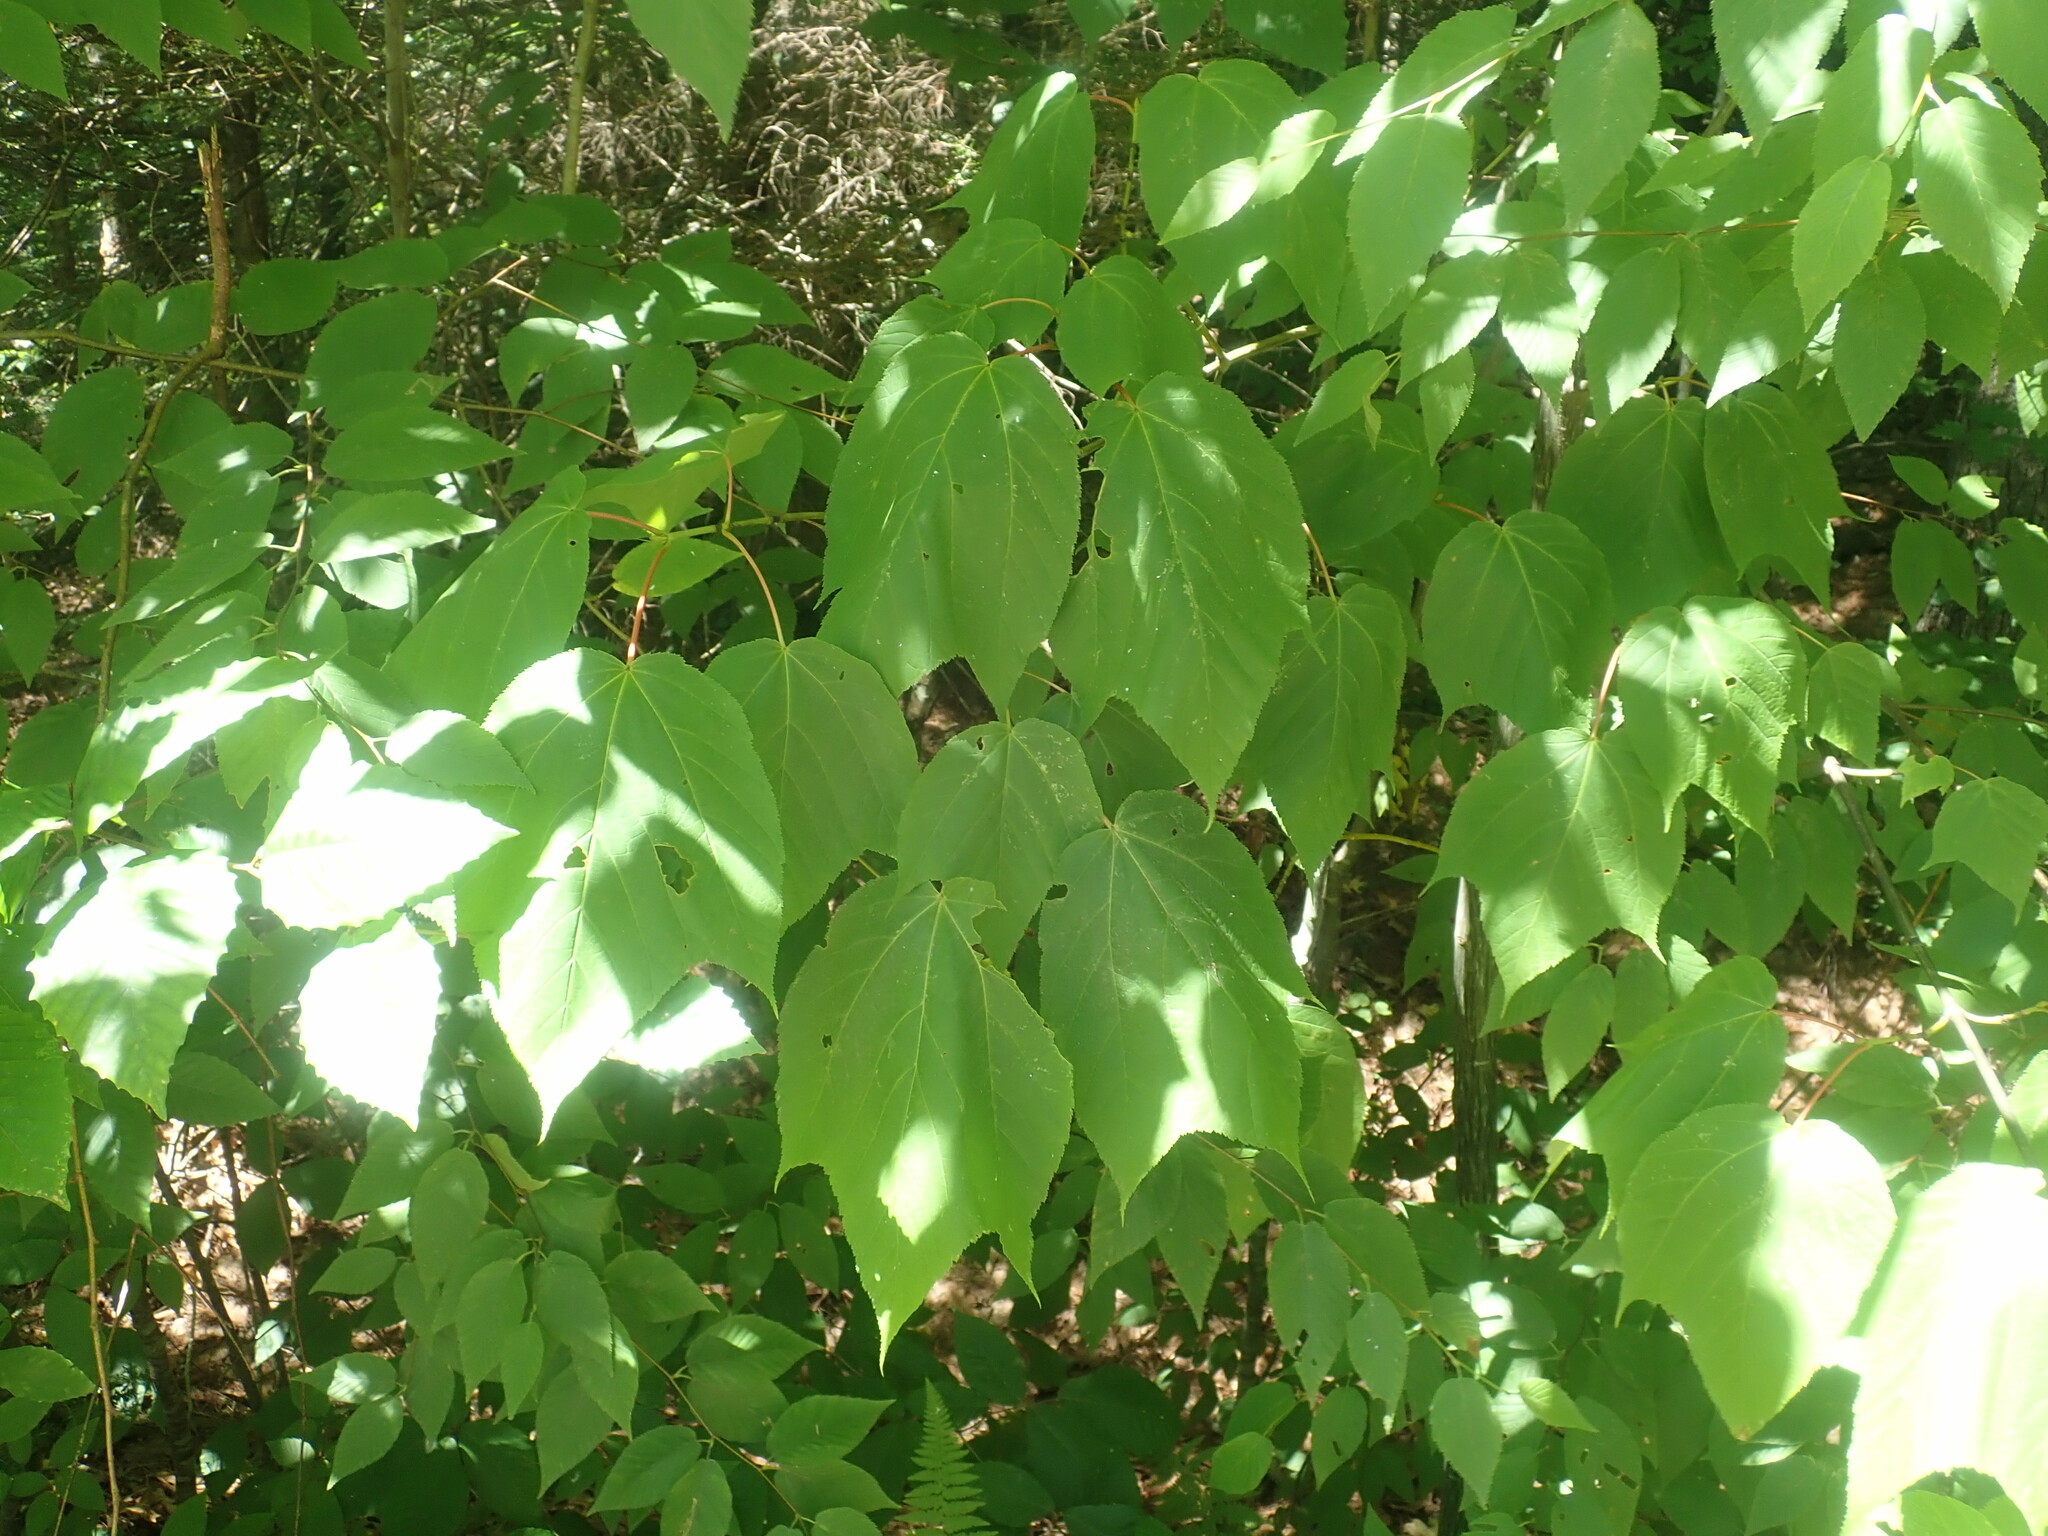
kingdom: Plantae
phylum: Tracheophyta
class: Magnoliopsida
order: Sapindales
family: Sapindaceae
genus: Acer
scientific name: Acer pensylvanicum
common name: Moosewood
